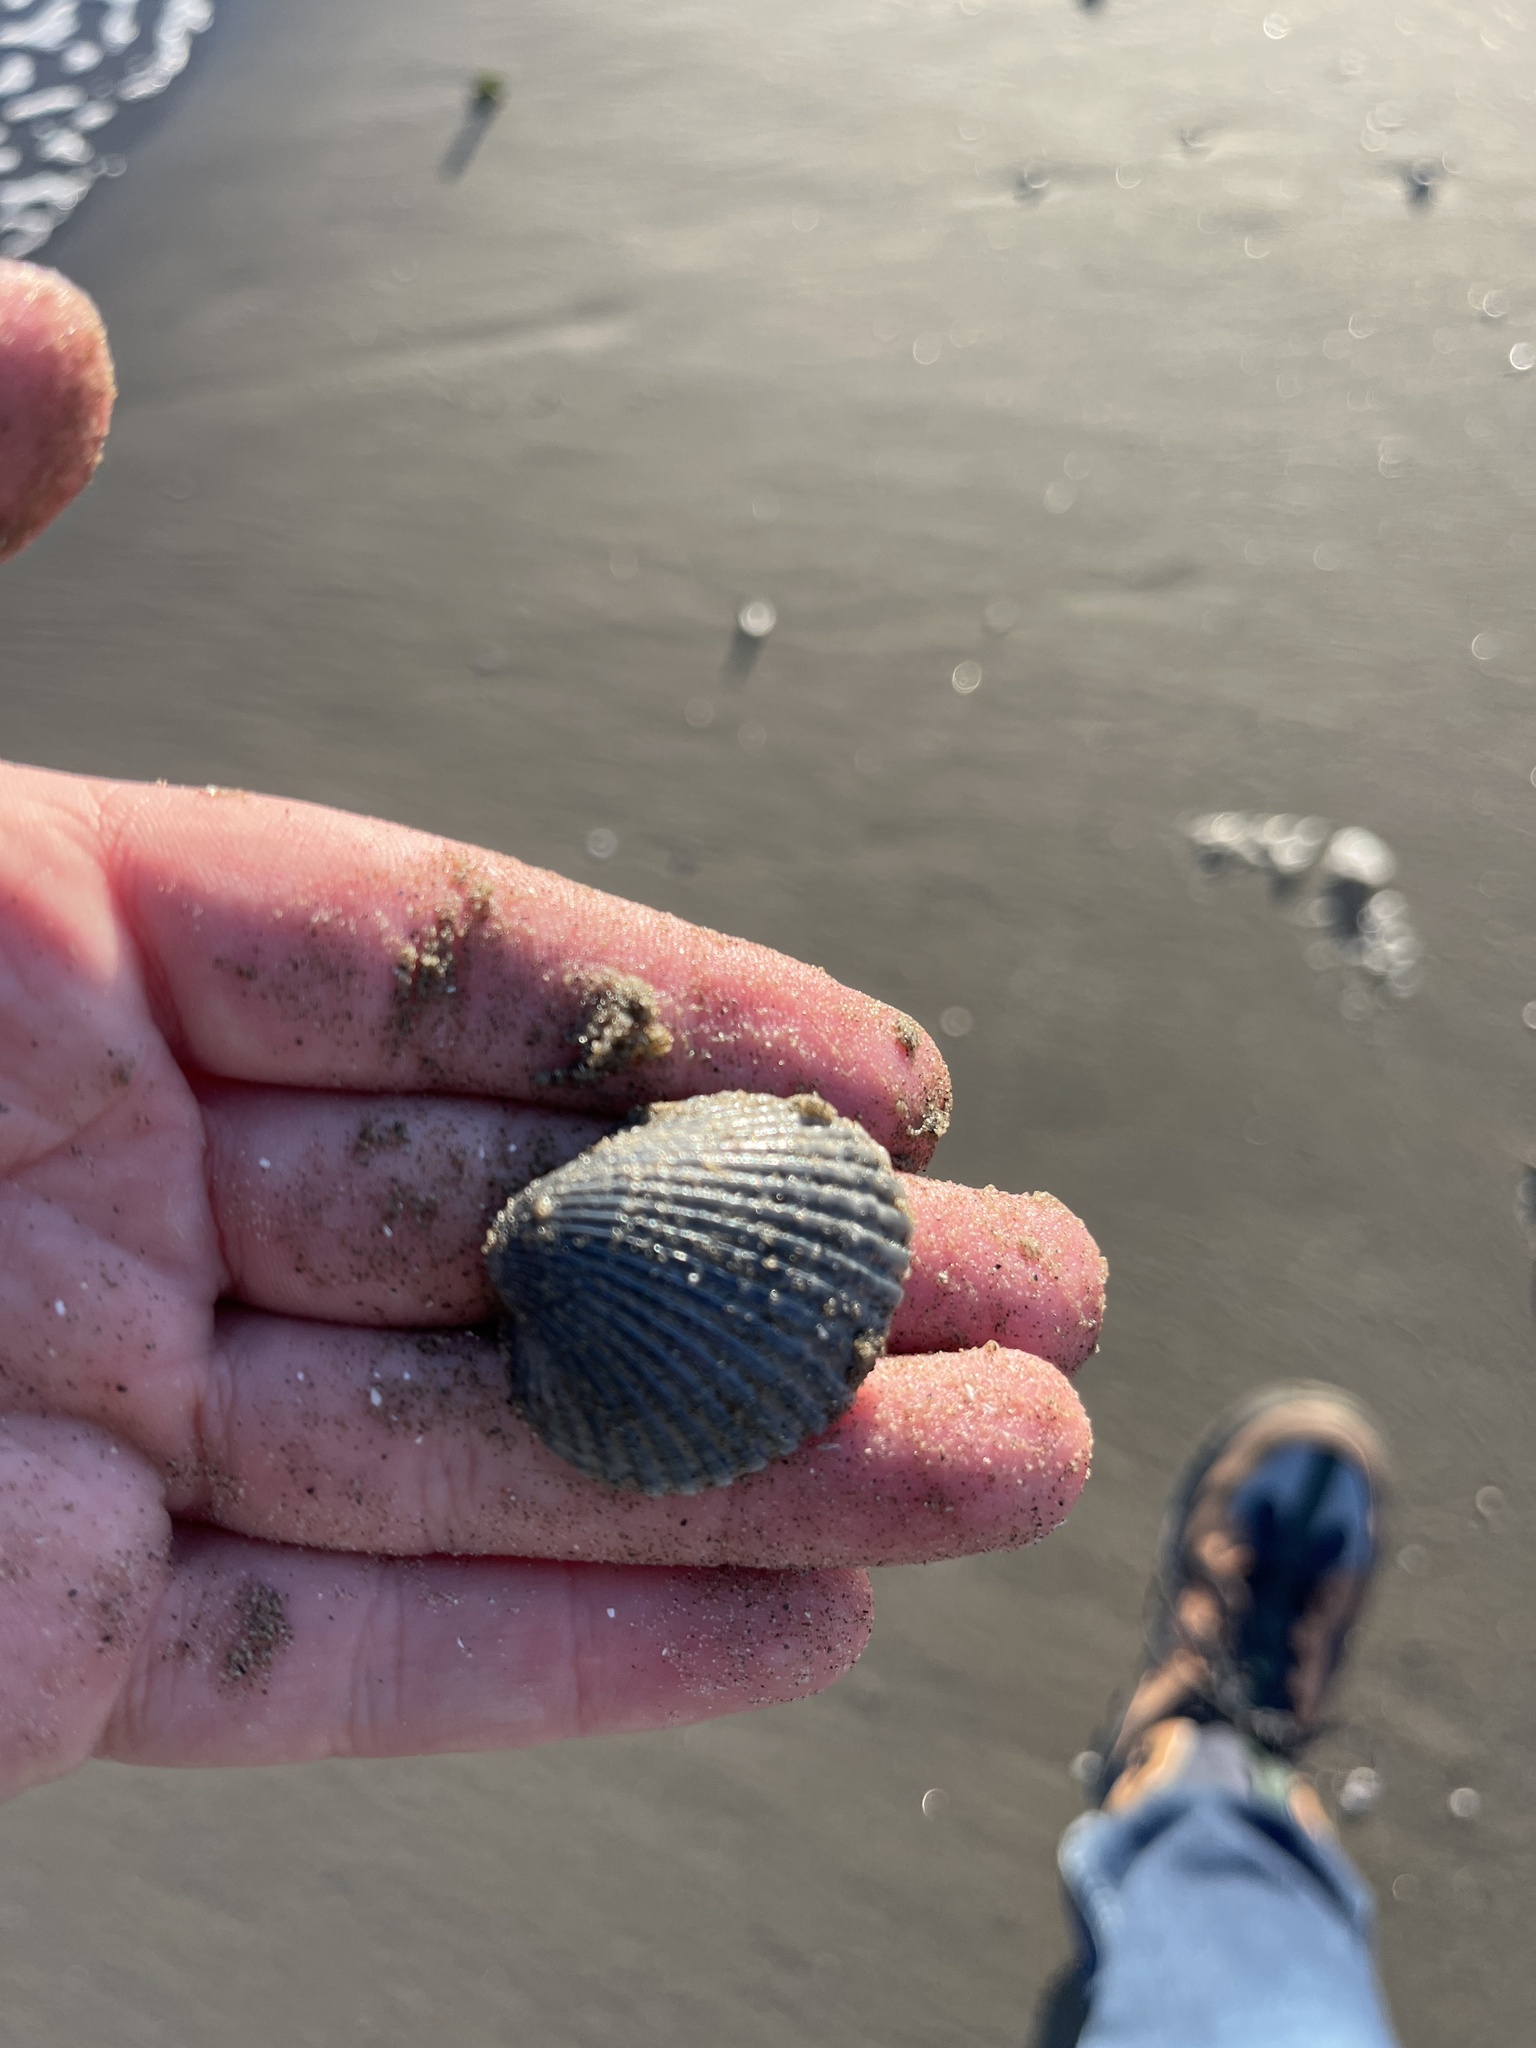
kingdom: Animalia
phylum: Mollusca
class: Bivalvia
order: Arcida
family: Arcidae
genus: Lunarca
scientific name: Lunarca ovalis
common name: Blood ark
